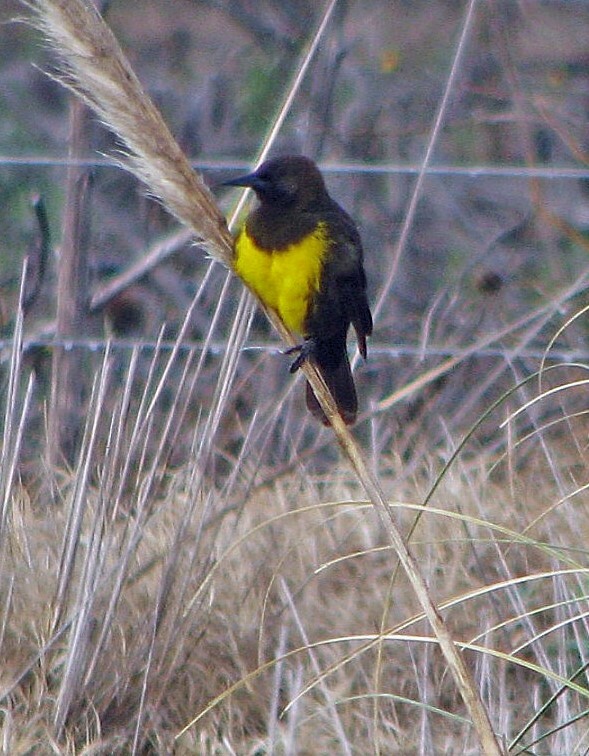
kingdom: Animalia
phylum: Chordata
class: Aves
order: Passeriformes
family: Icteridae
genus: Pseudoleistes
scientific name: Pseudoleistes virescens
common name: Brown-and-yellow marshbird
